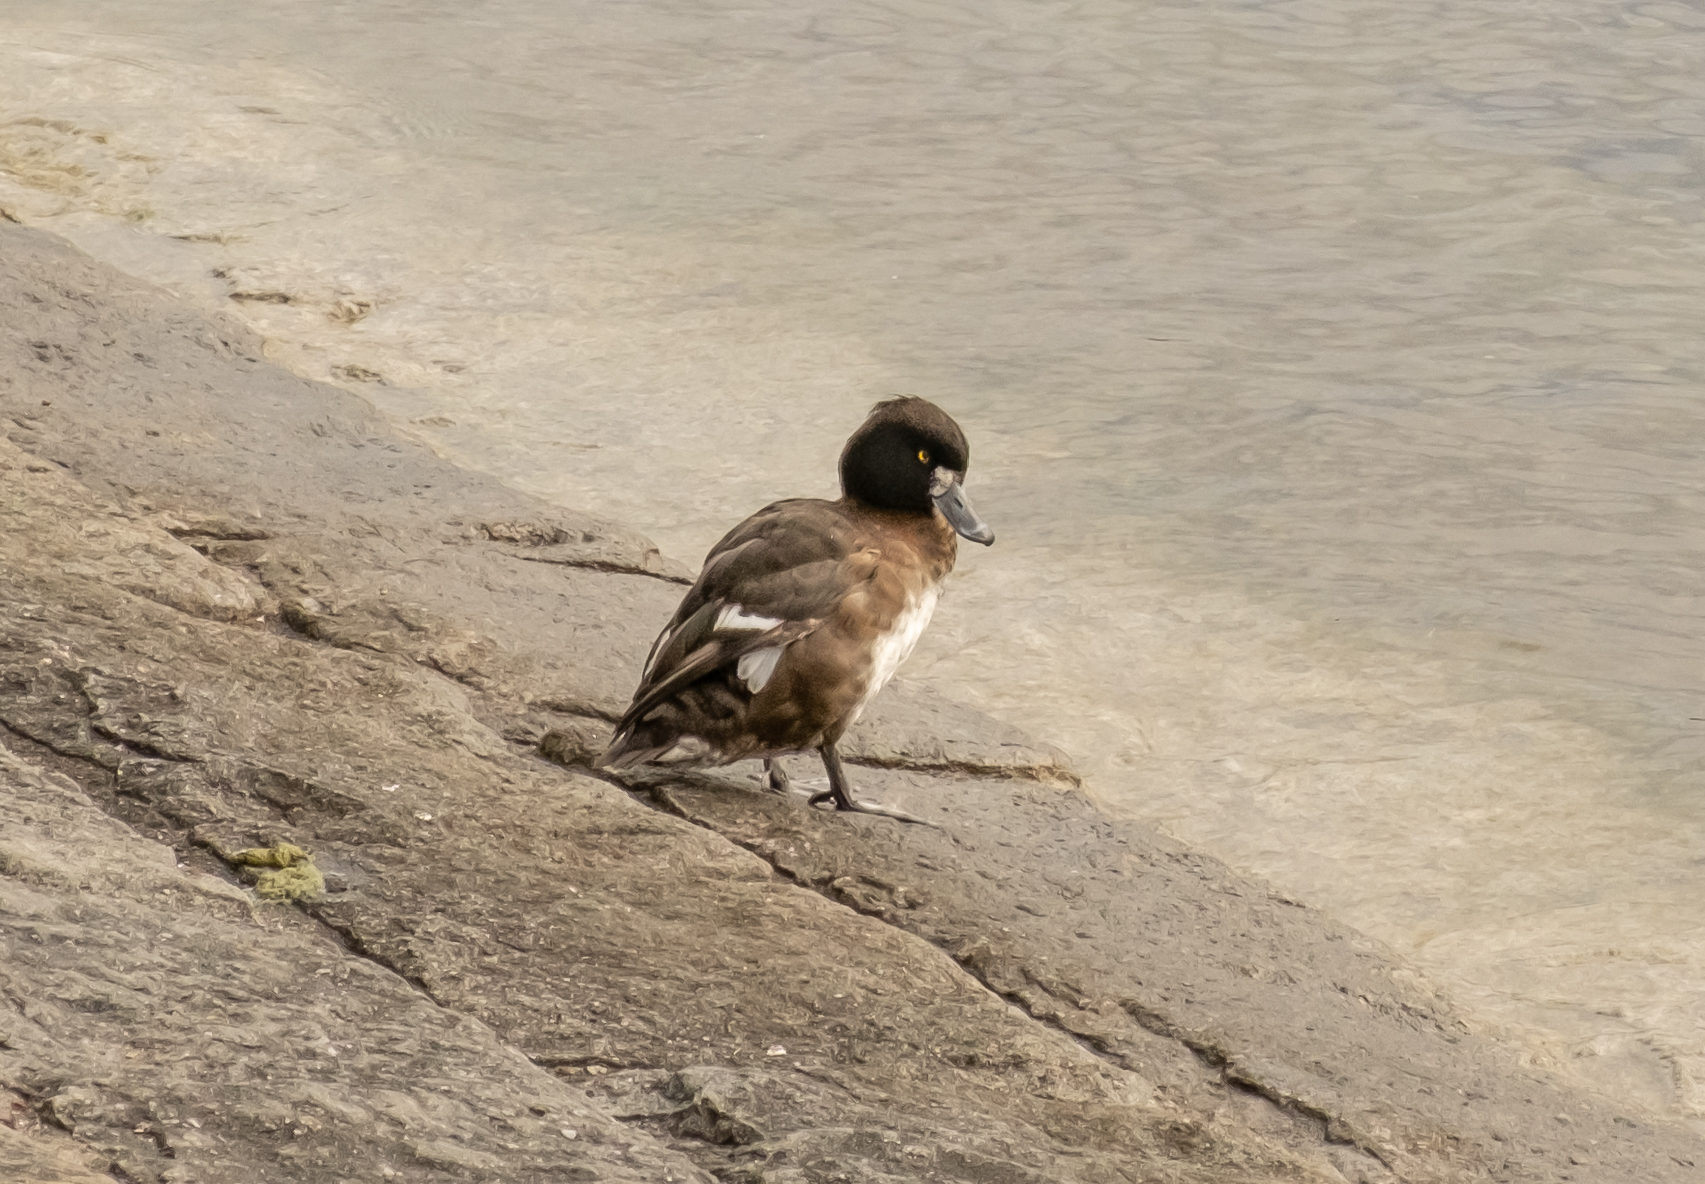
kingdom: Animalia
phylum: Chordata
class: Aves
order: Anseriformes
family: Anatidae
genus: Aythya
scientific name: Aythya fuligula
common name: Tufted duck
